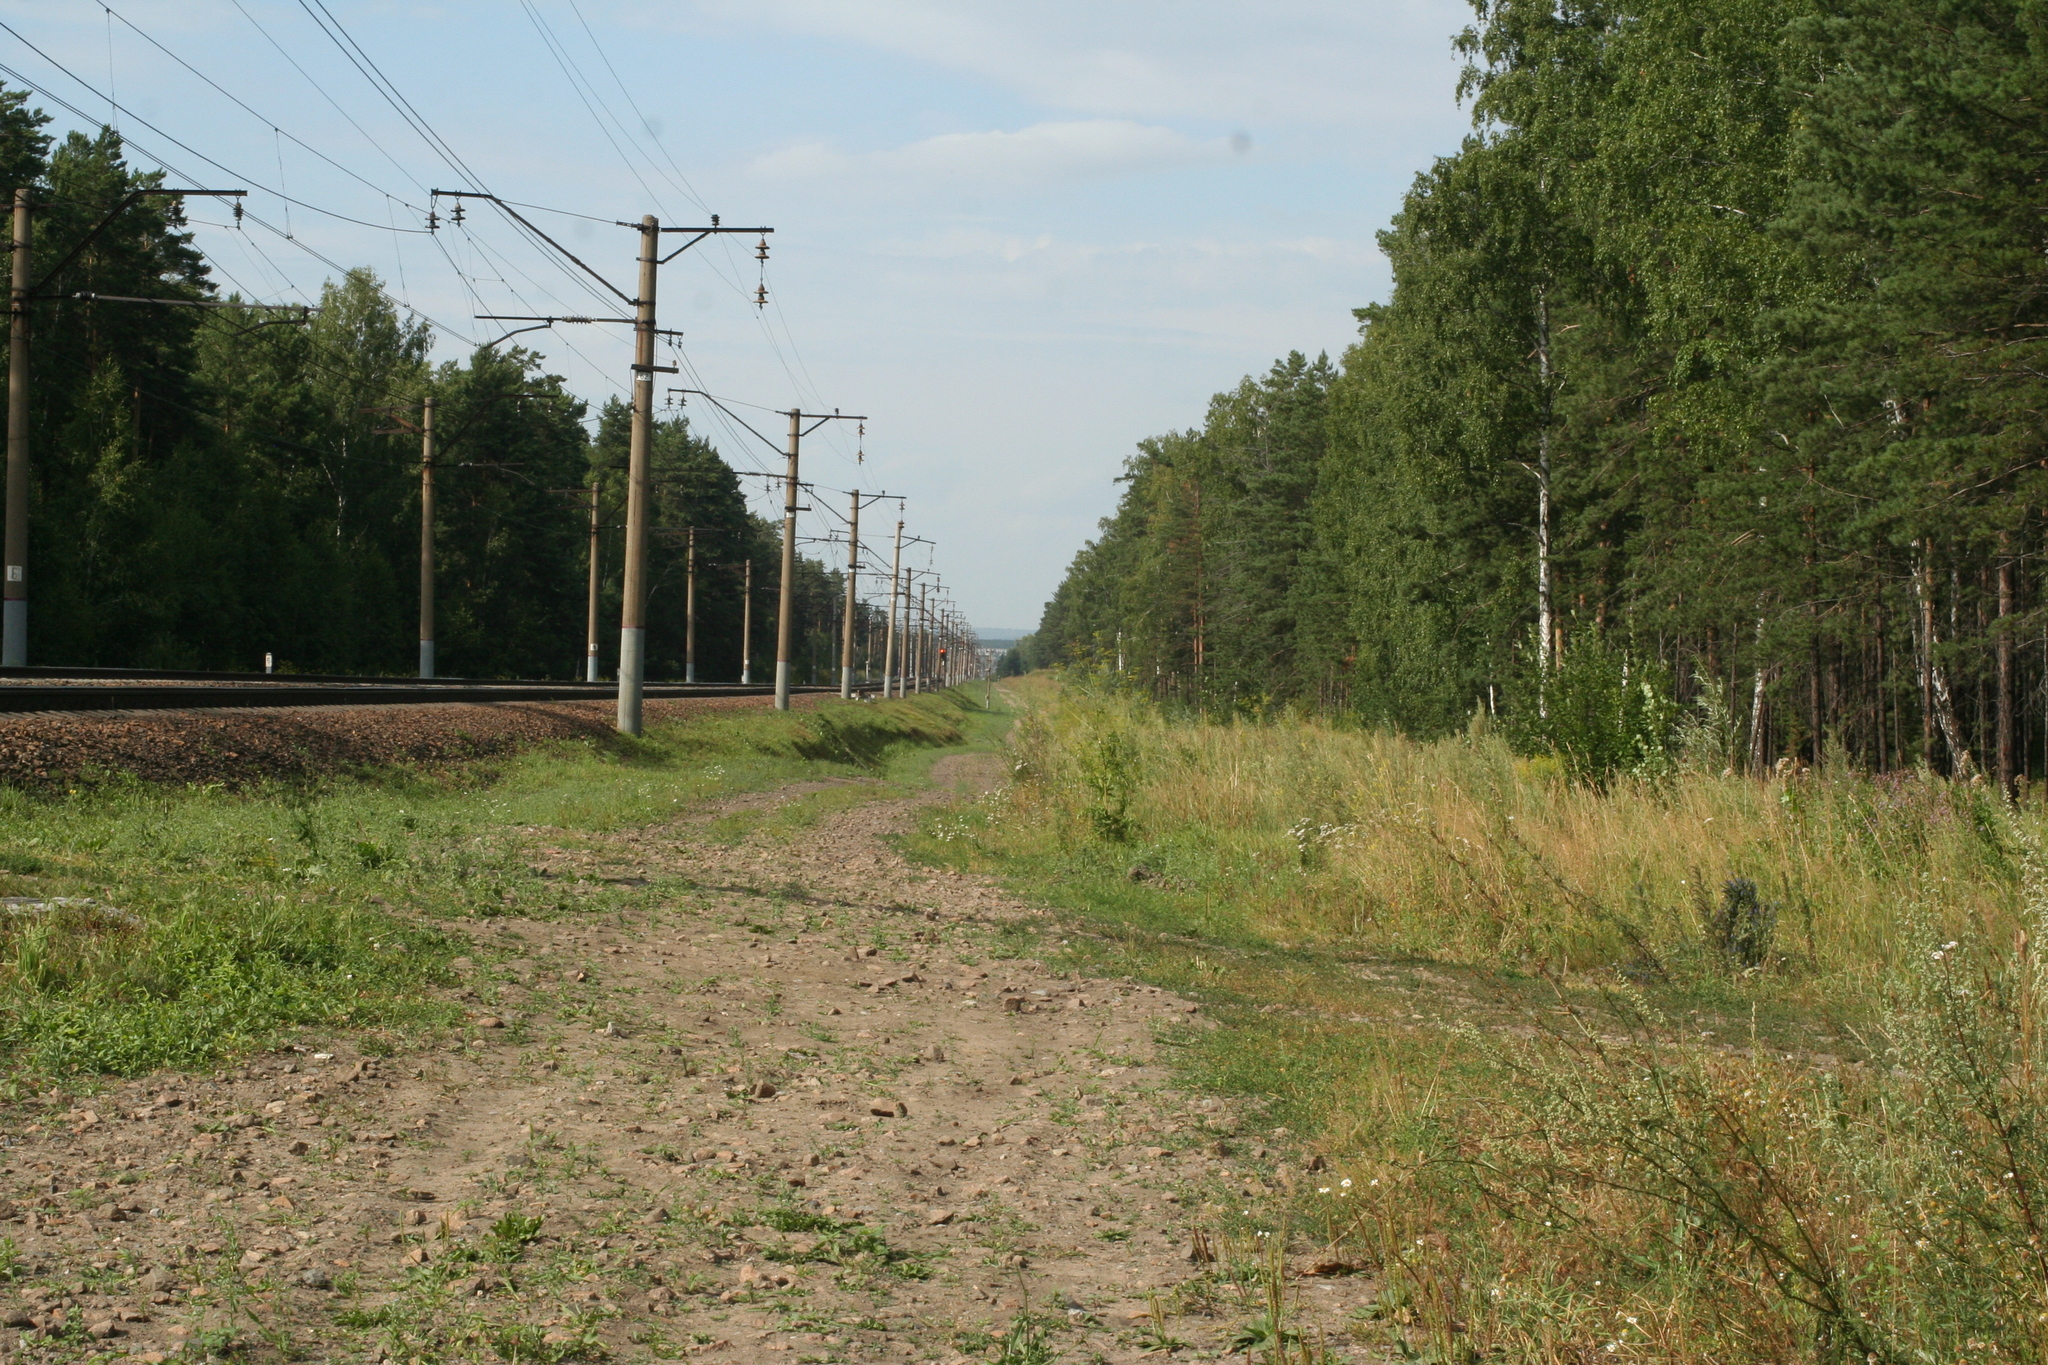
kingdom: Plantae
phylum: Tracheophyta
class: Pinopsida
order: Pinales
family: Pinaceae
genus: Pinus
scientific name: Pinus sylvestris
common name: Scots pine
